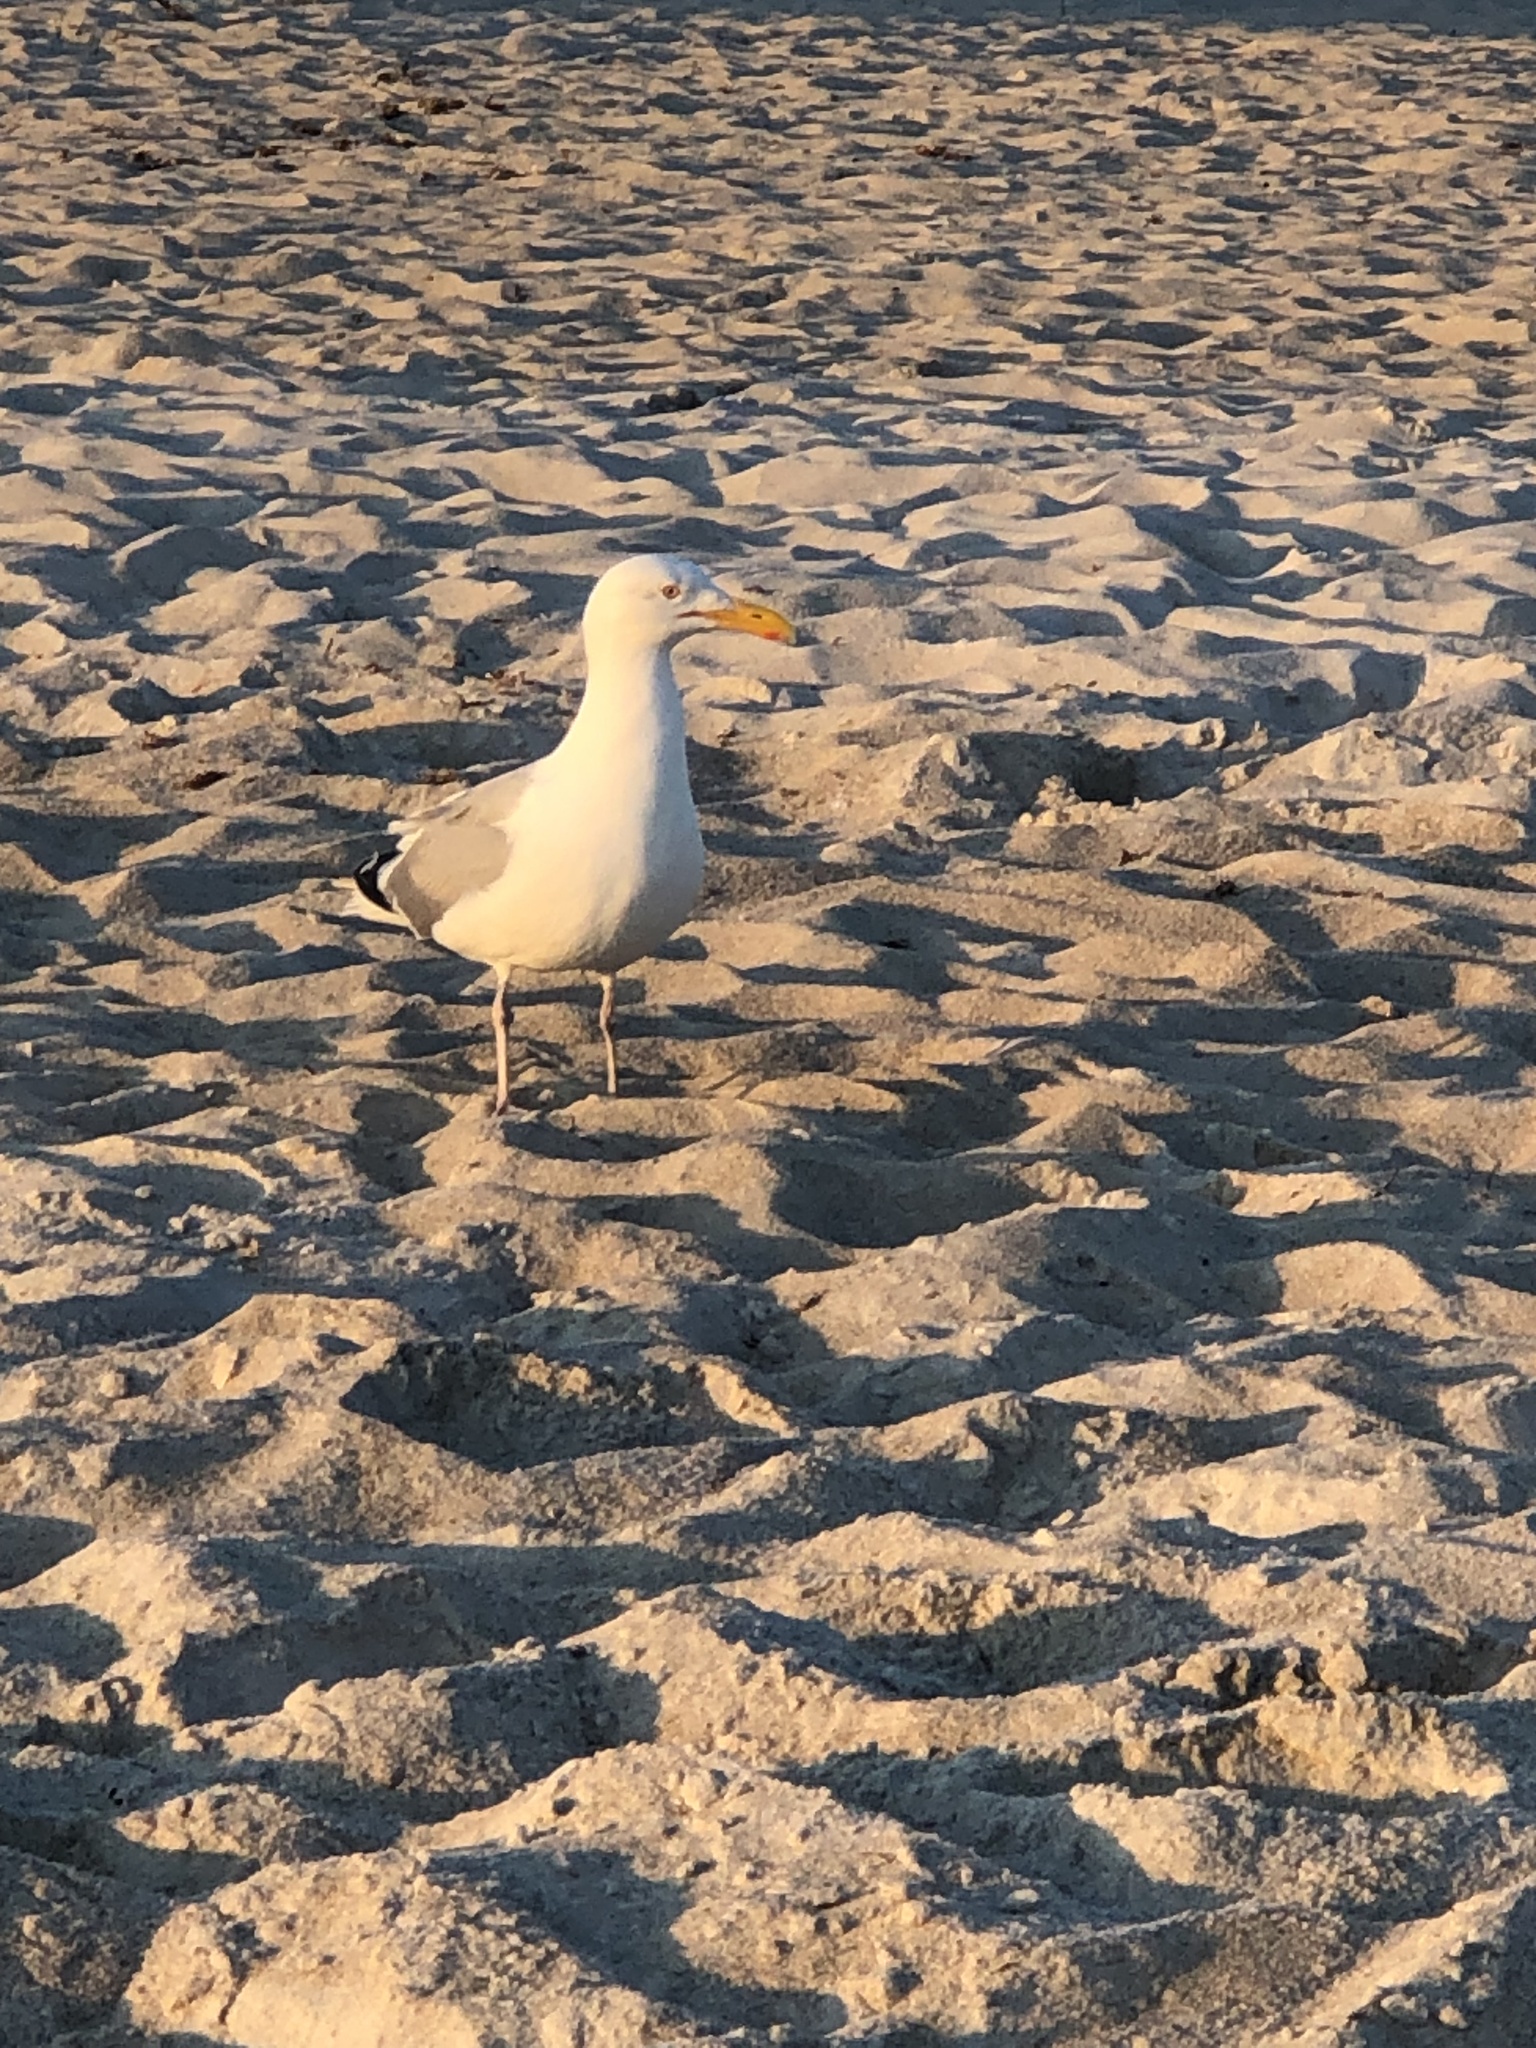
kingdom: Animalia
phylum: Chordata
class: Aves
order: Charadriiformes
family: Laridae
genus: Larus
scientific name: Larus argentatus
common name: Herring gull
